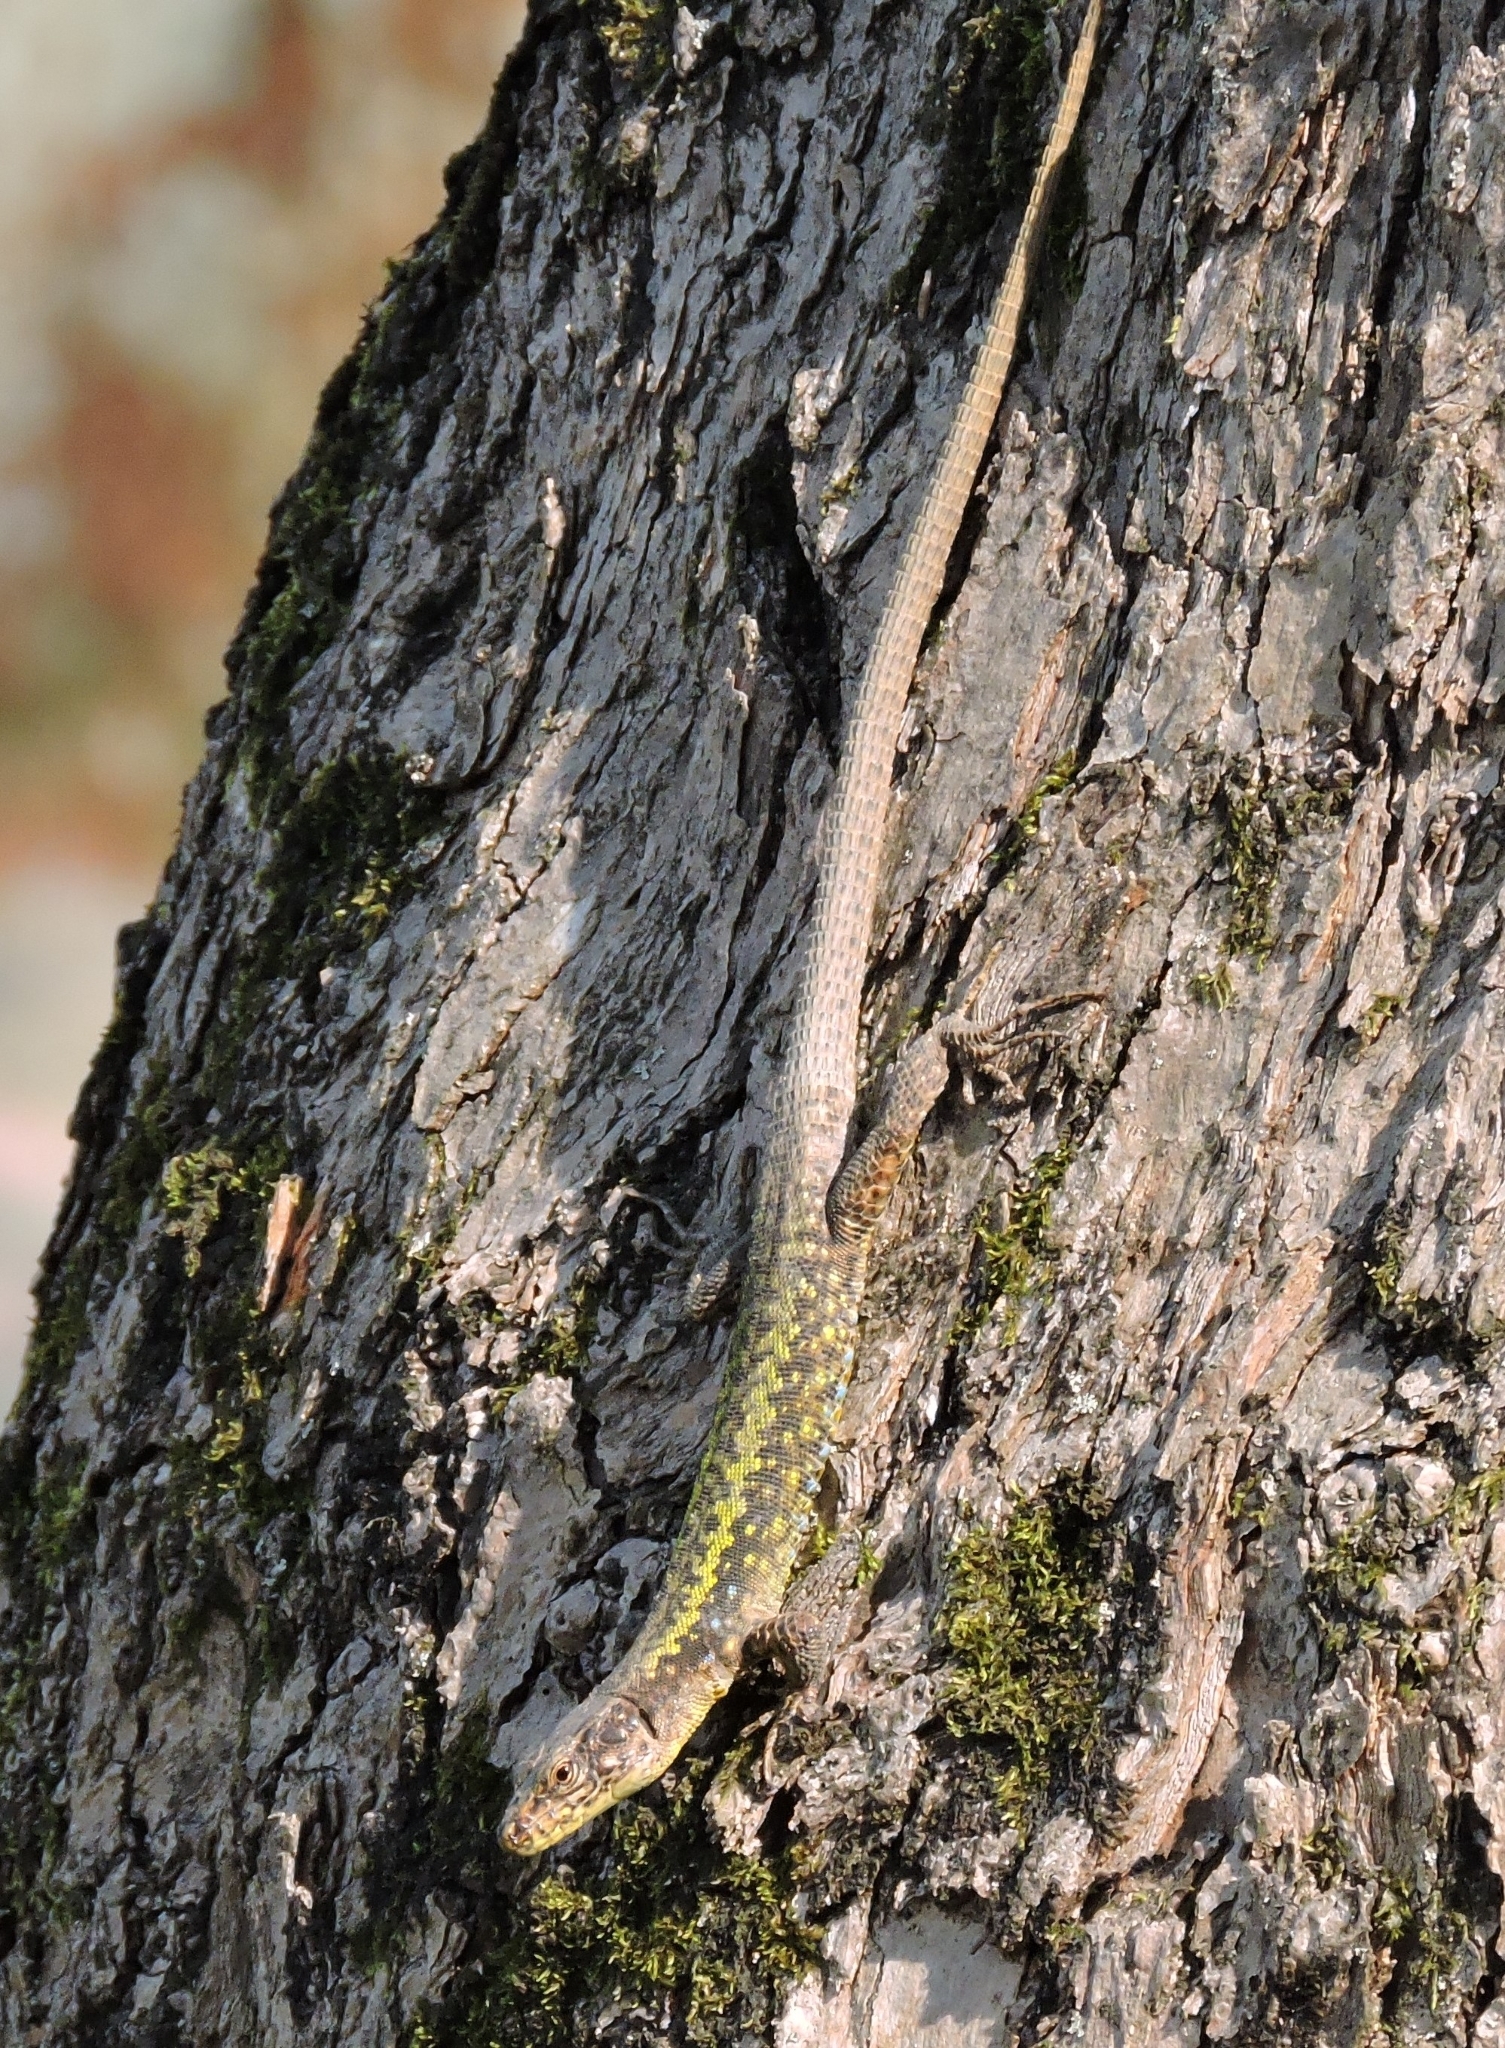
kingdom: Animalia
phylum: Chordata
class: Squamata
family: Lacertidae
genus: Darevskia
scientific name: Darevskia rudis
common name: Spiny-tailed lizard
